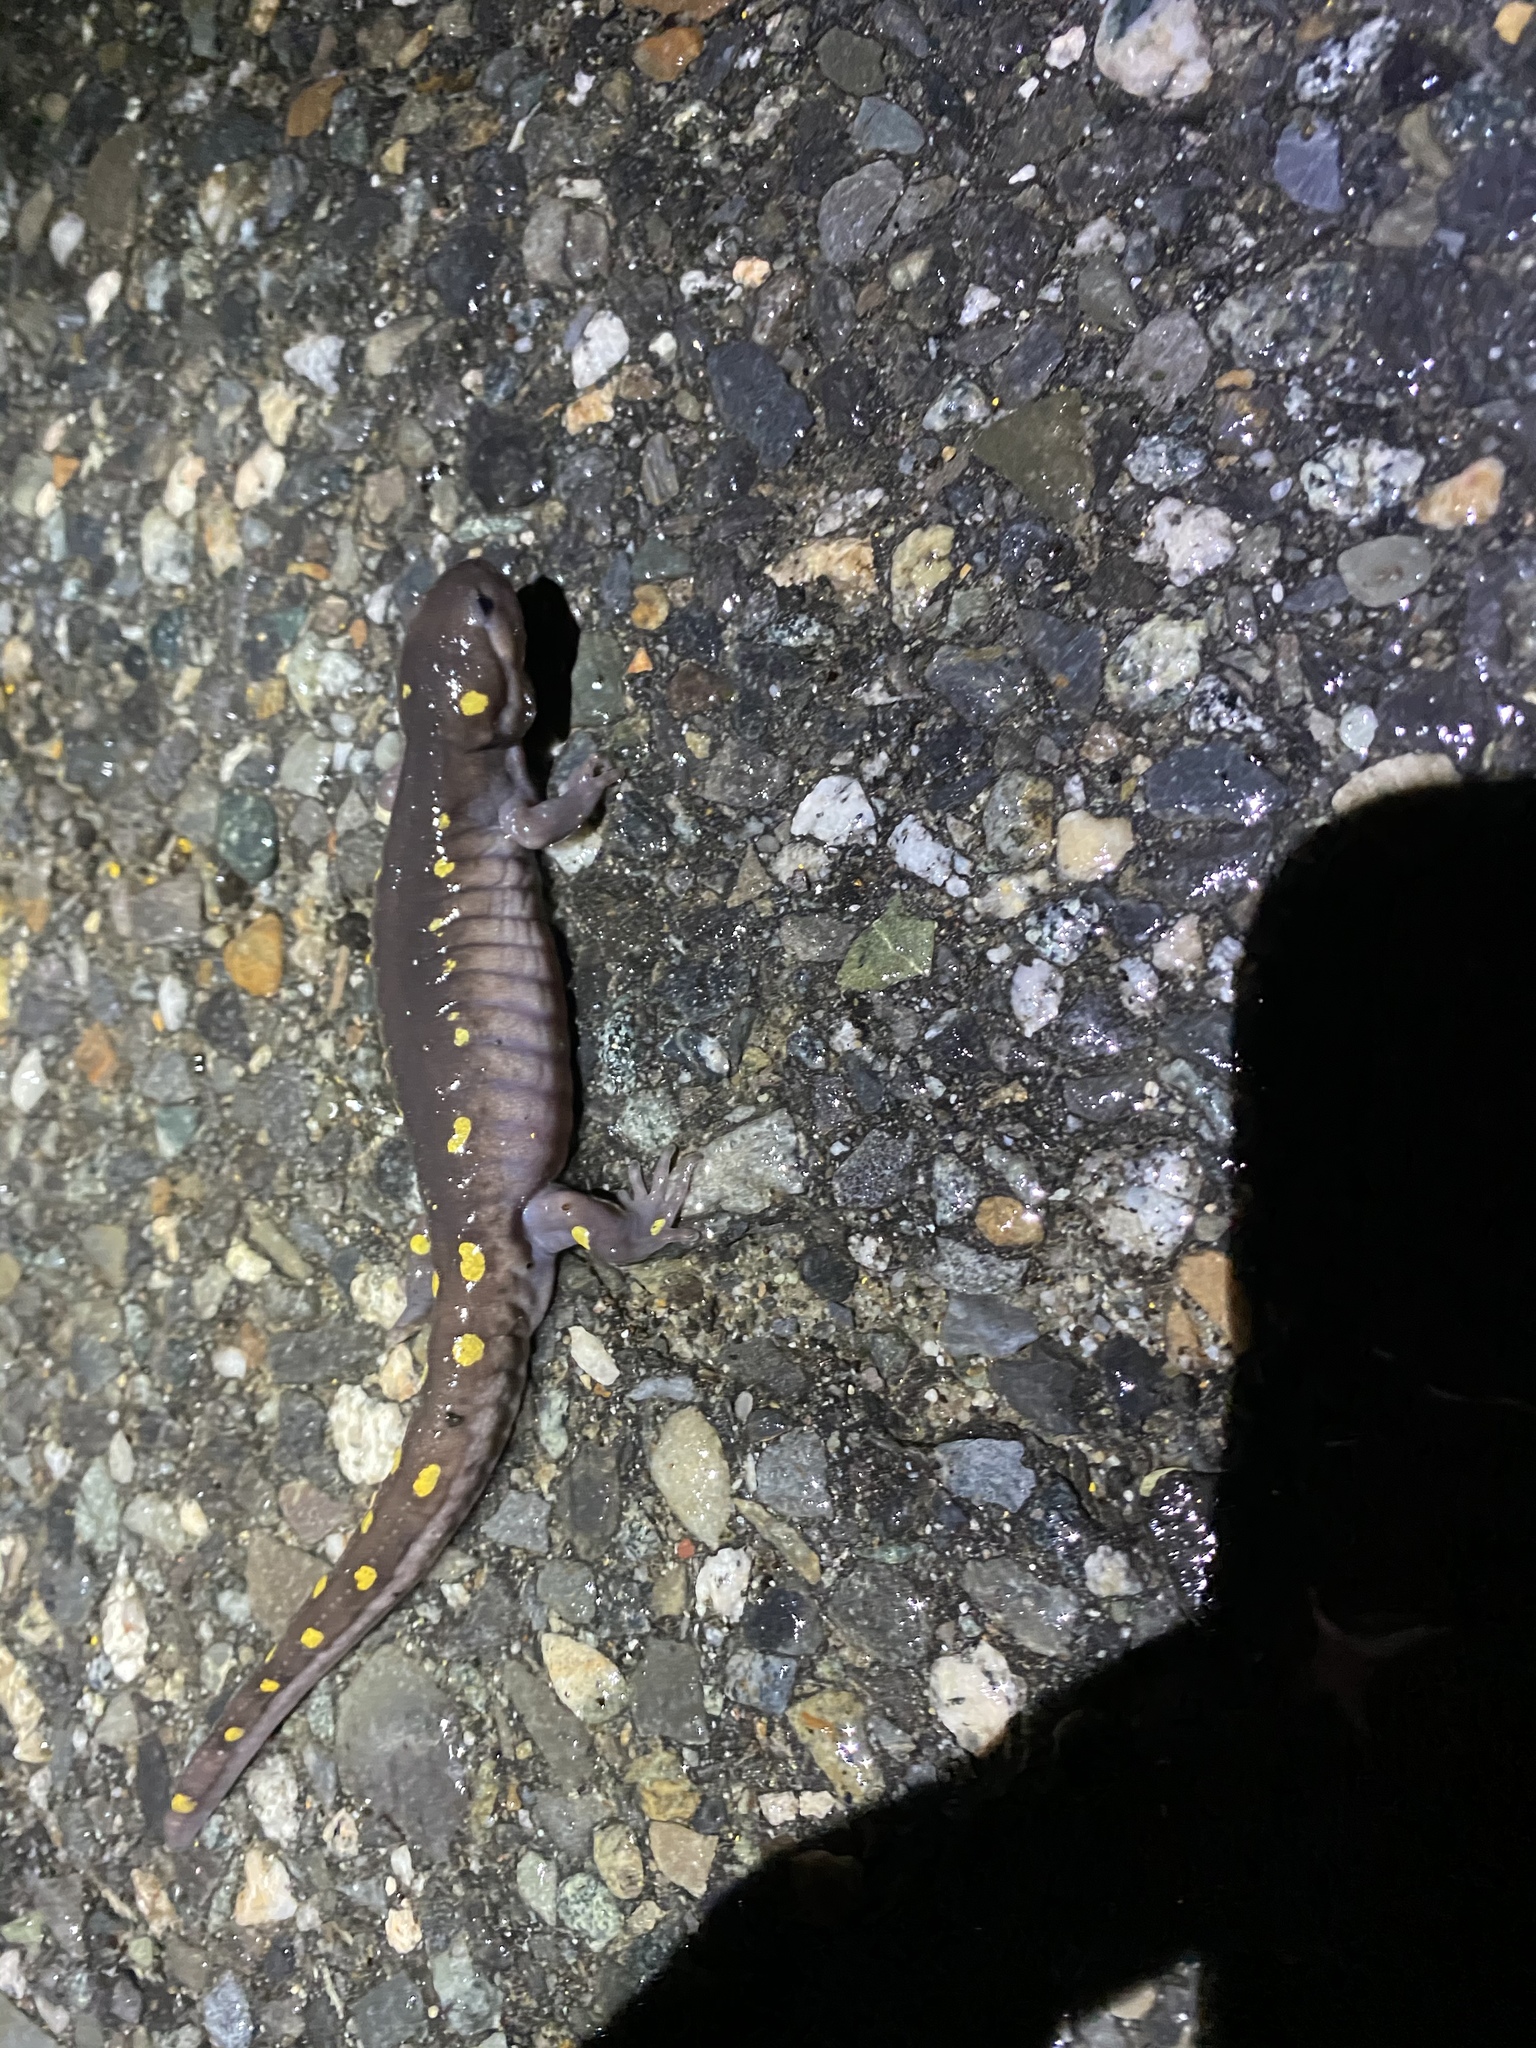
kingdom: Animalia
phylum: Chordata
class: Amphibia
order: Caudata
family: Ambystomatidae
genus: Ambystoma
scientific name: Ambystoma maculatum
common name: Spotted salamander
